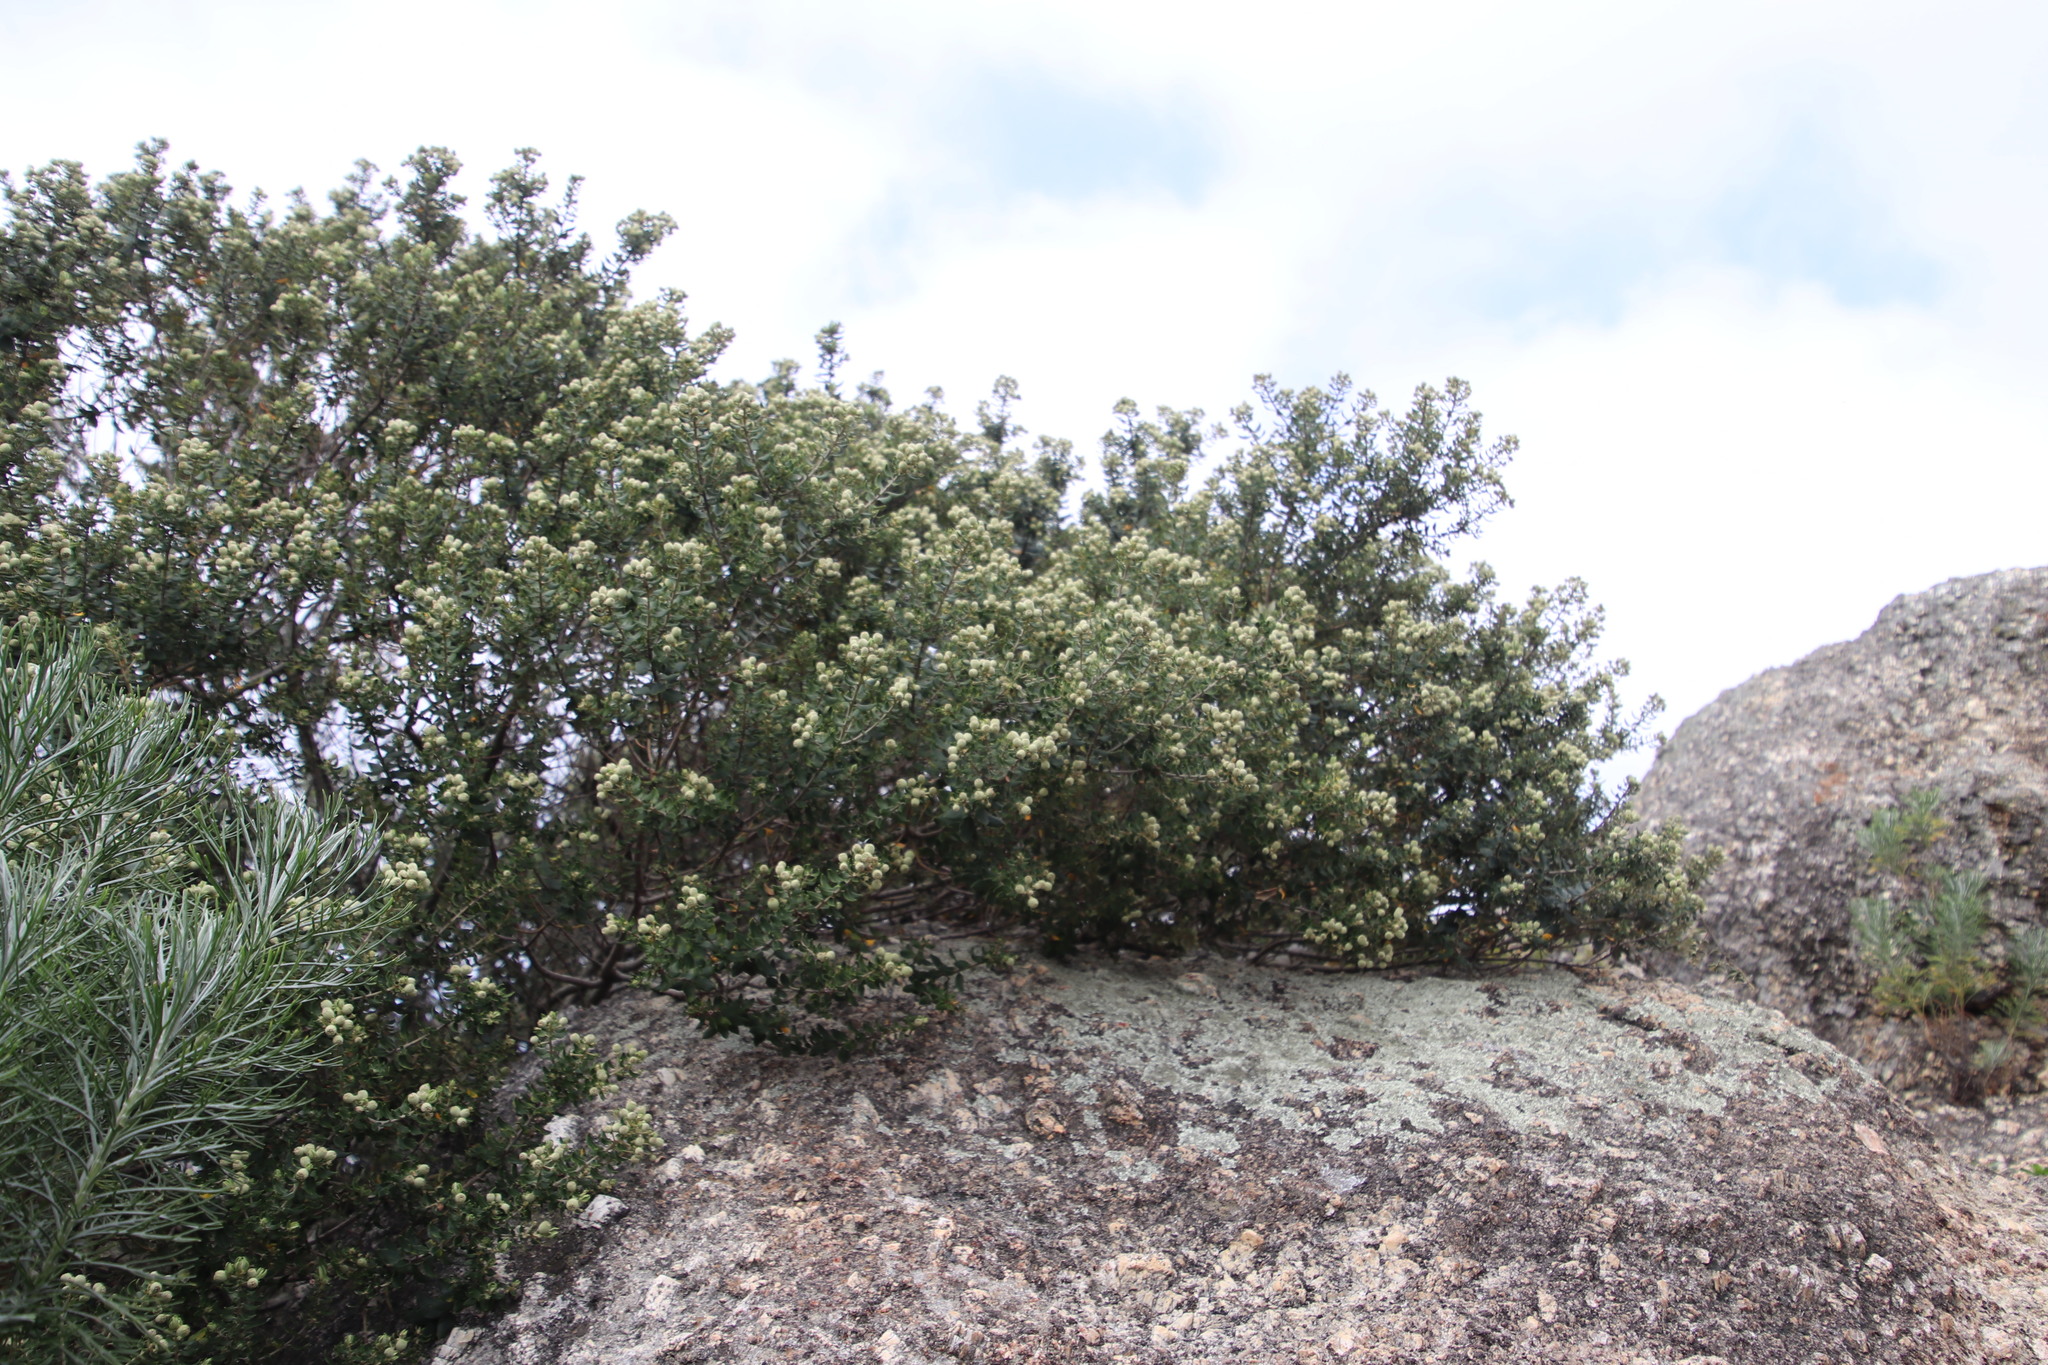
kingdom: Plantae
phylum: Tracheophyta
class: Magnoliopsida
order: Rosales
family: Rhamnaceae
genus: Phylica
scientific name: Phylica buxifolia
